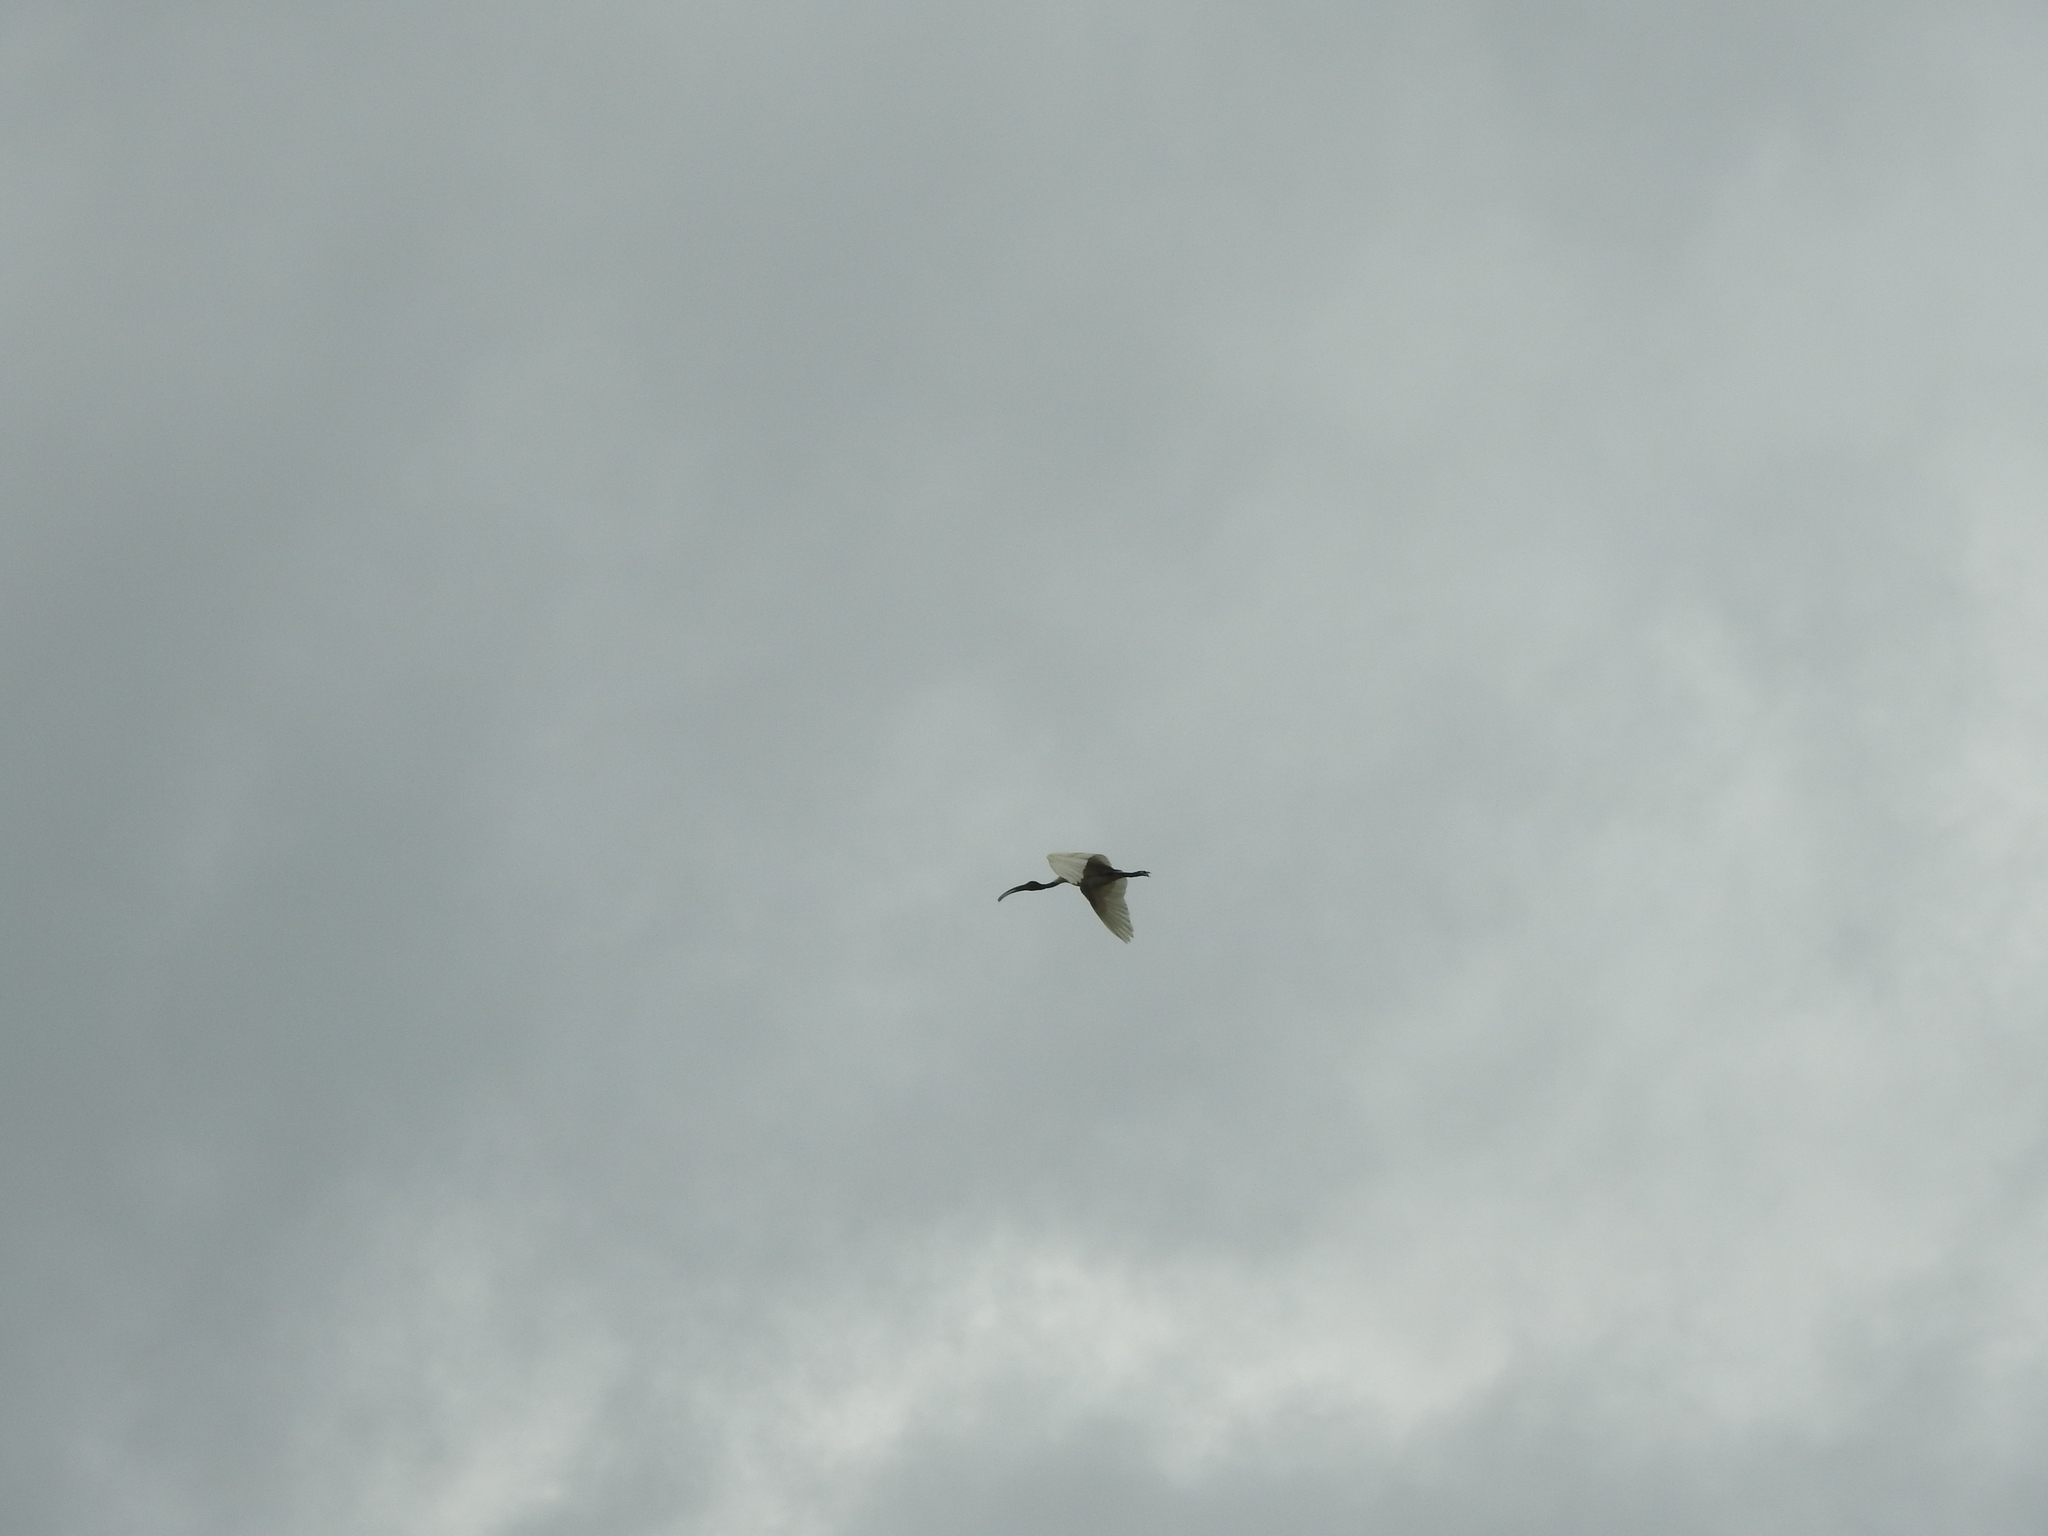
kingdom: Animalia
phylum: Chordata
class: Aves
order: Pelecaniformes
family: Threskiornithidae
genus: Threskiornis
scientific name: Threskiornis melanocephalus
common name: Black-headed ibis
